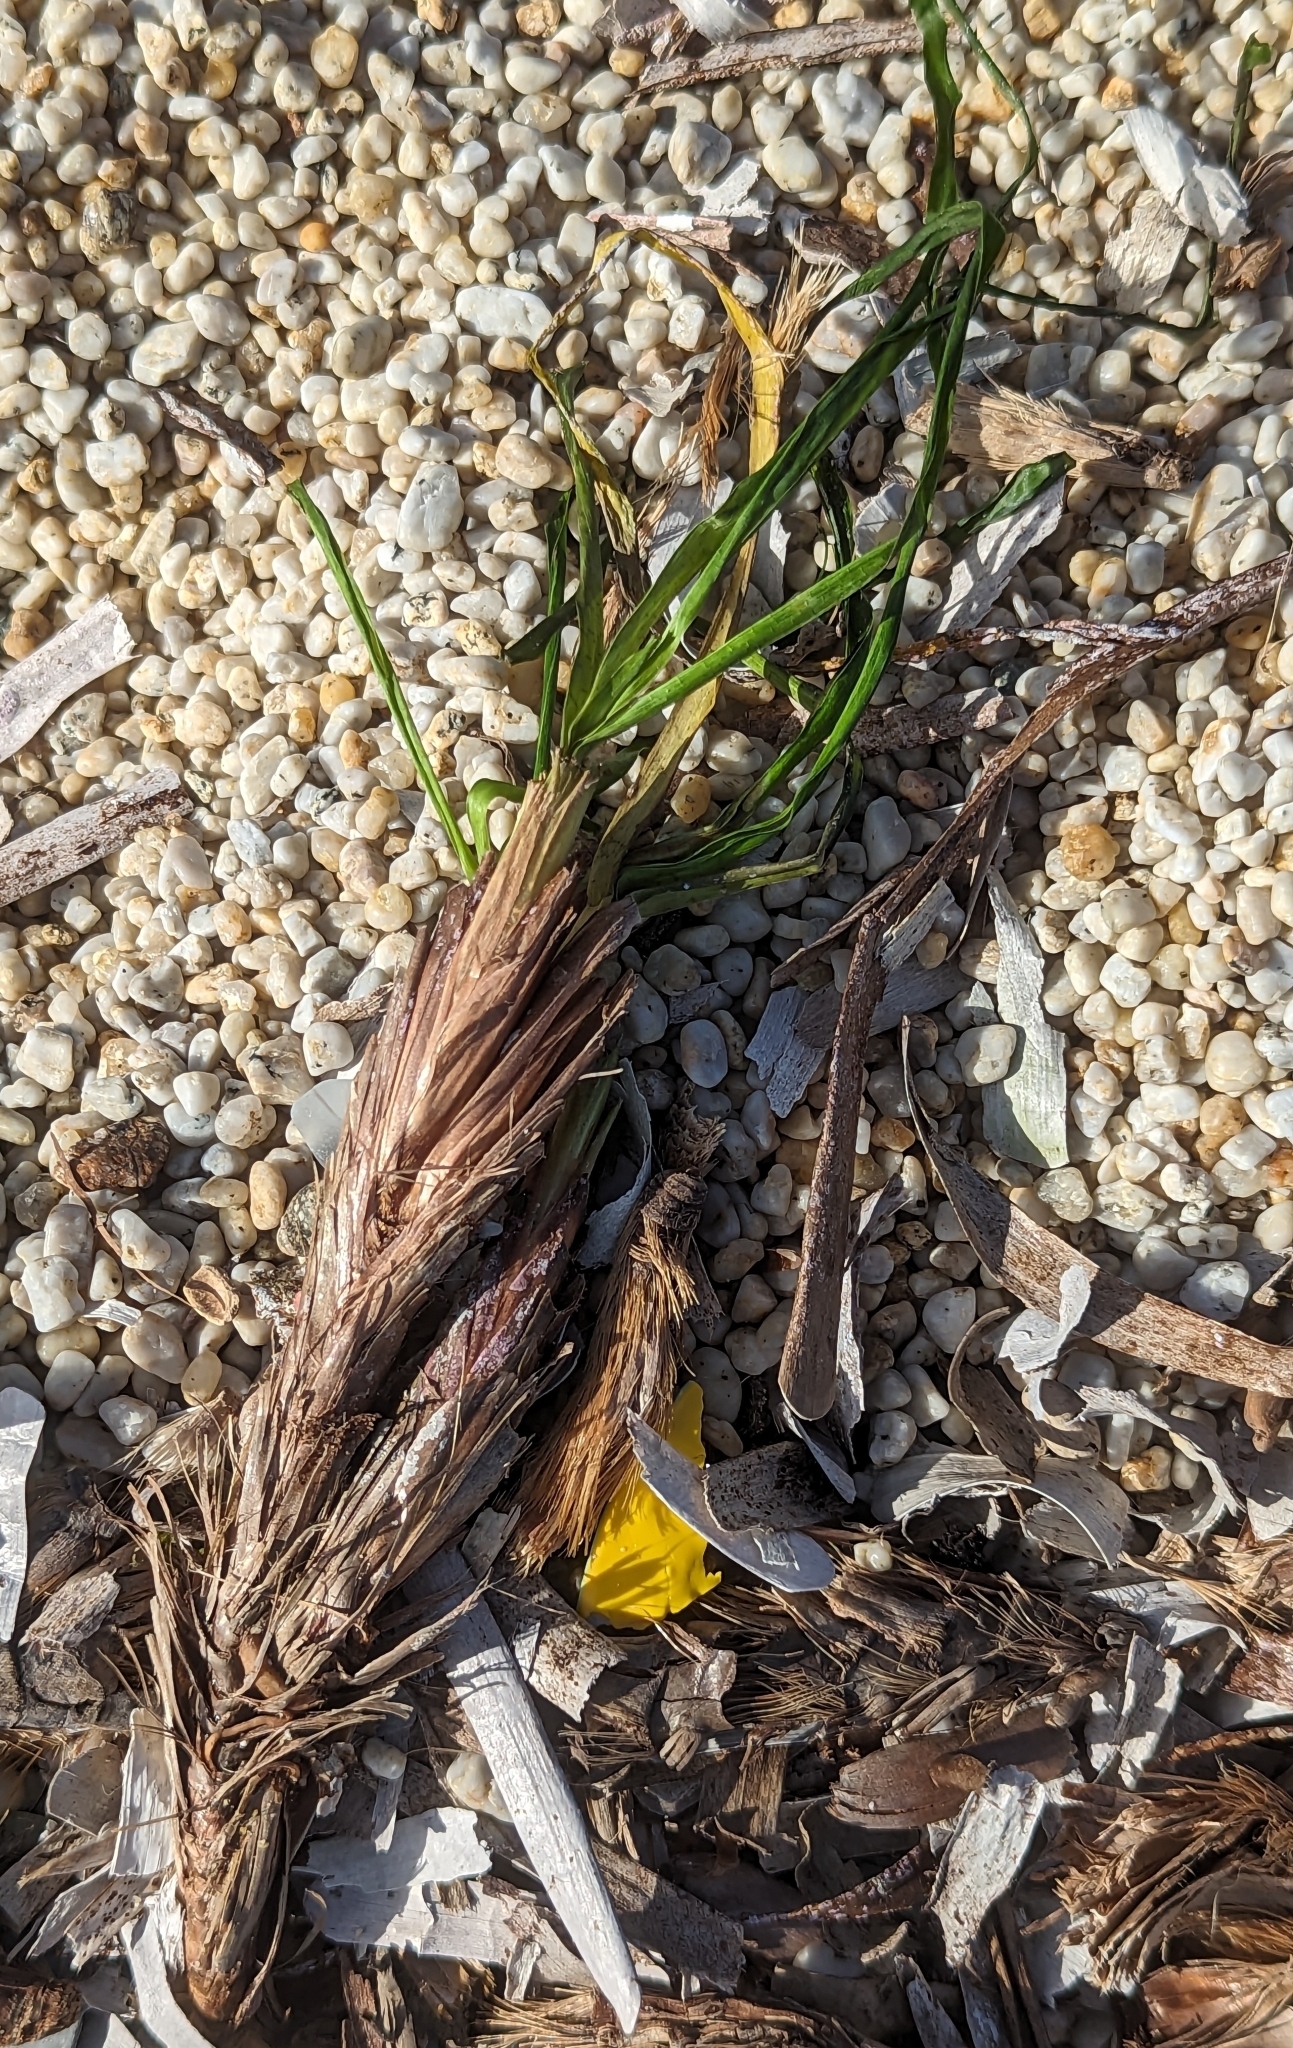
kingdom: Plantae
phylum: Tracheophyta
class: Liliopsida
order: Alismatales
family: Posidoniaceae
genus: Posidonia
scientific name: Posidonia oceanica
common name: Mediterranean tapeweed
